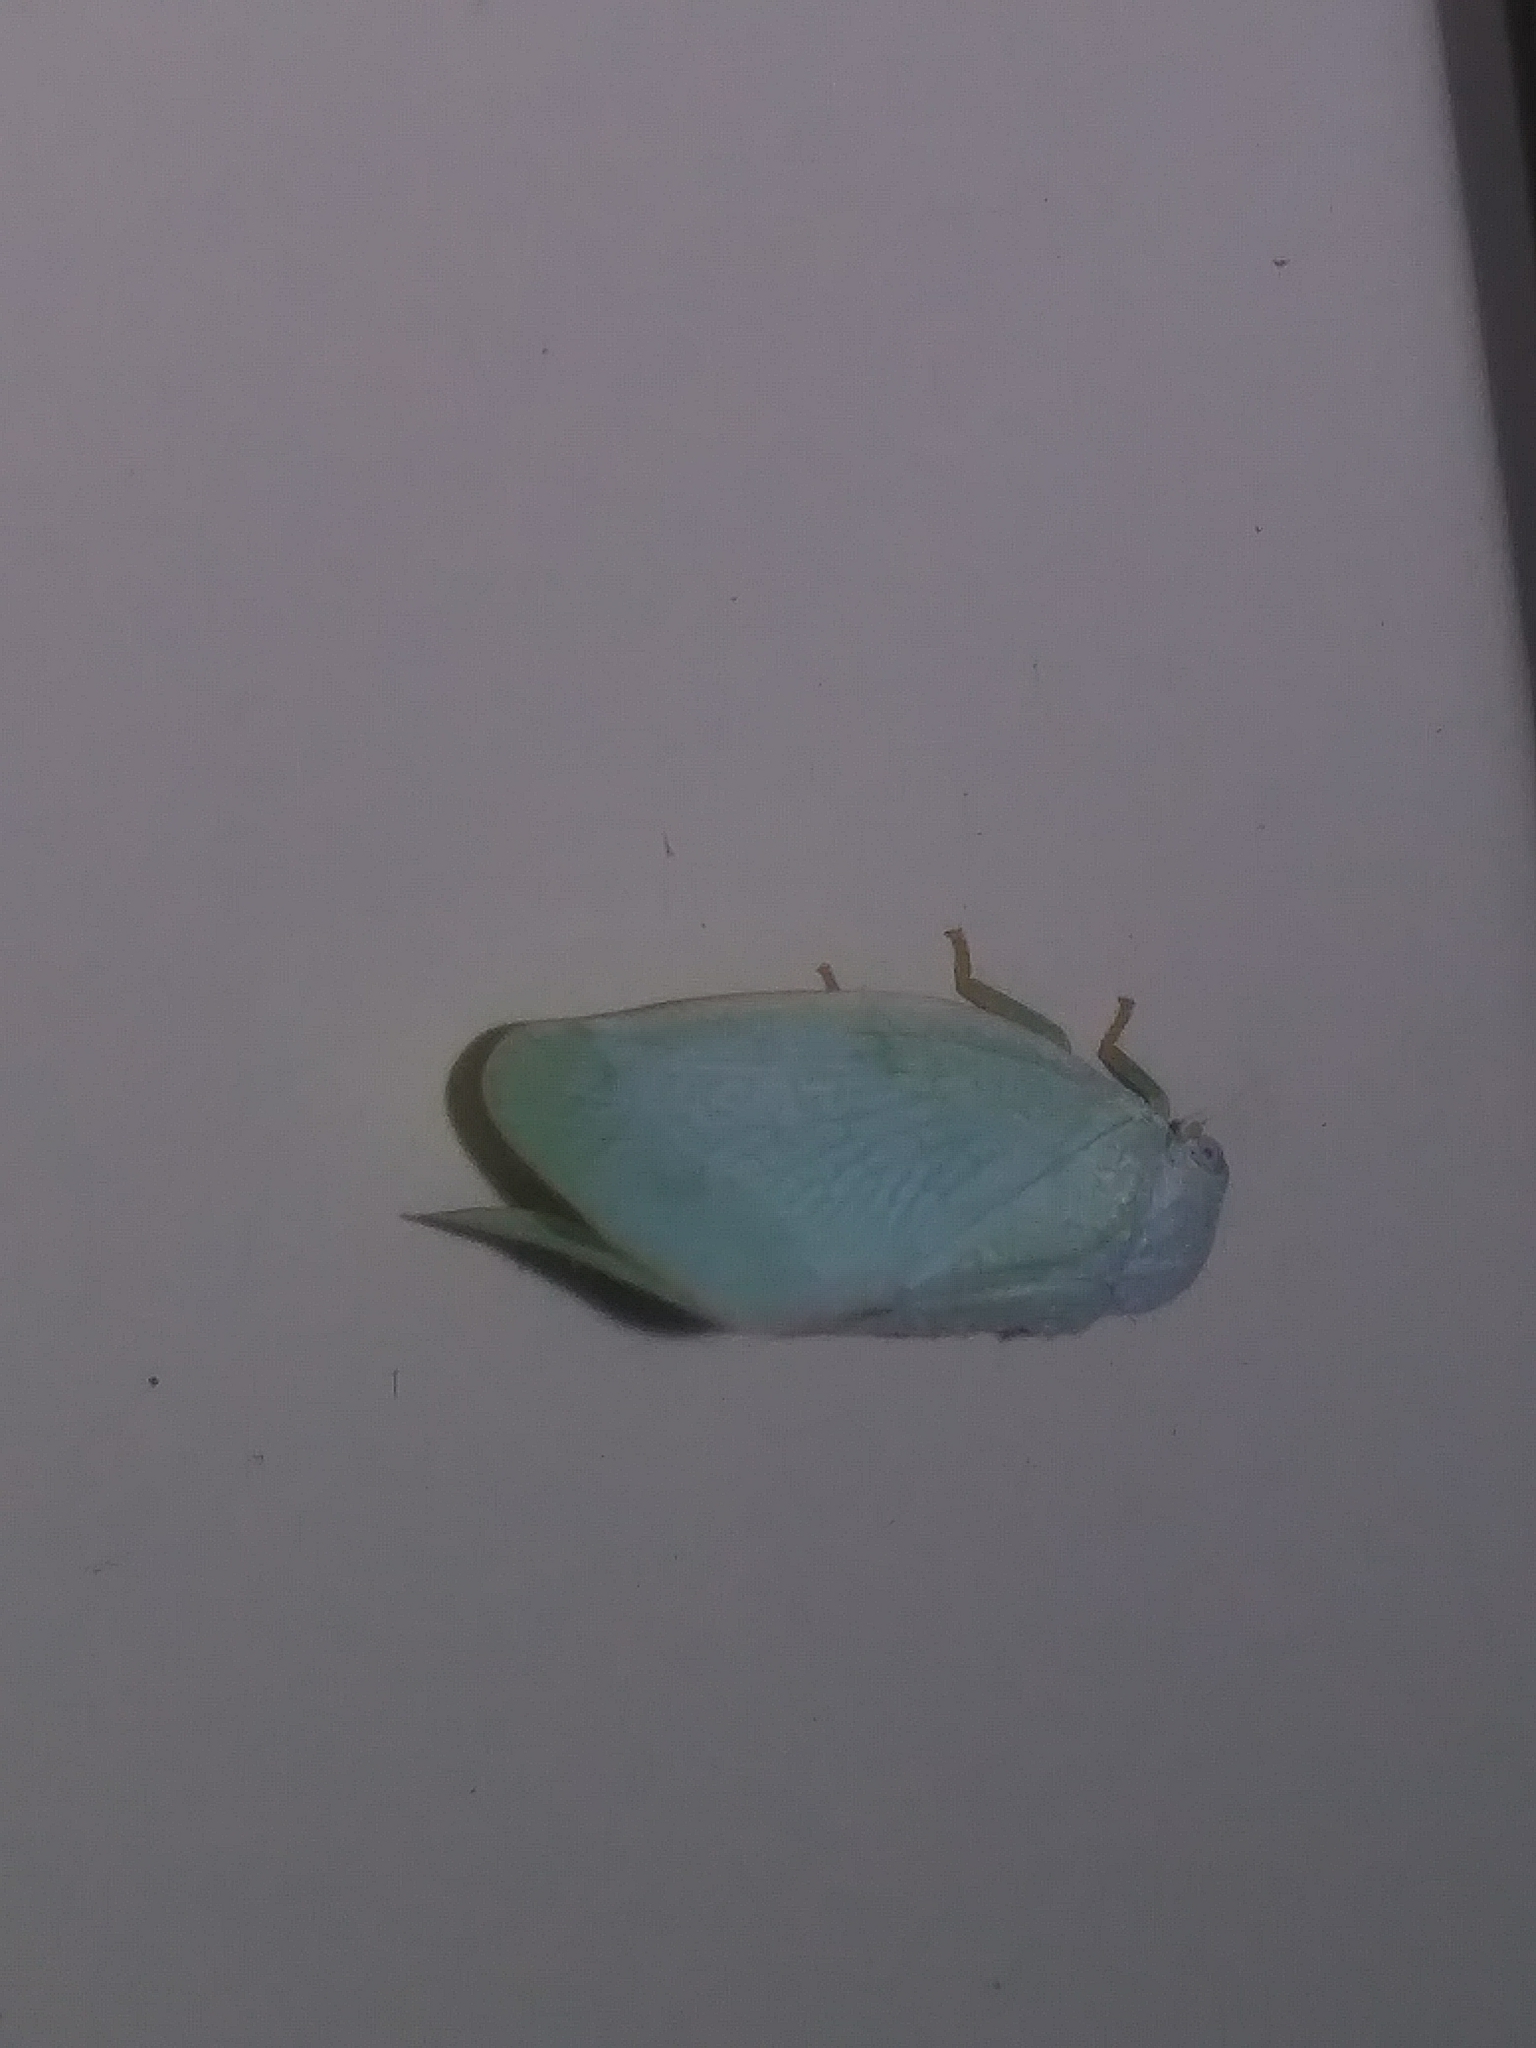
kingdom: Animalia
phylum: Arthropoda
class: Insecta
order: Hemiptera
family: Flatidae
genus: Flatormenis
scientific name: Flatormenis proxima
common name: Northern flatid planthopper
